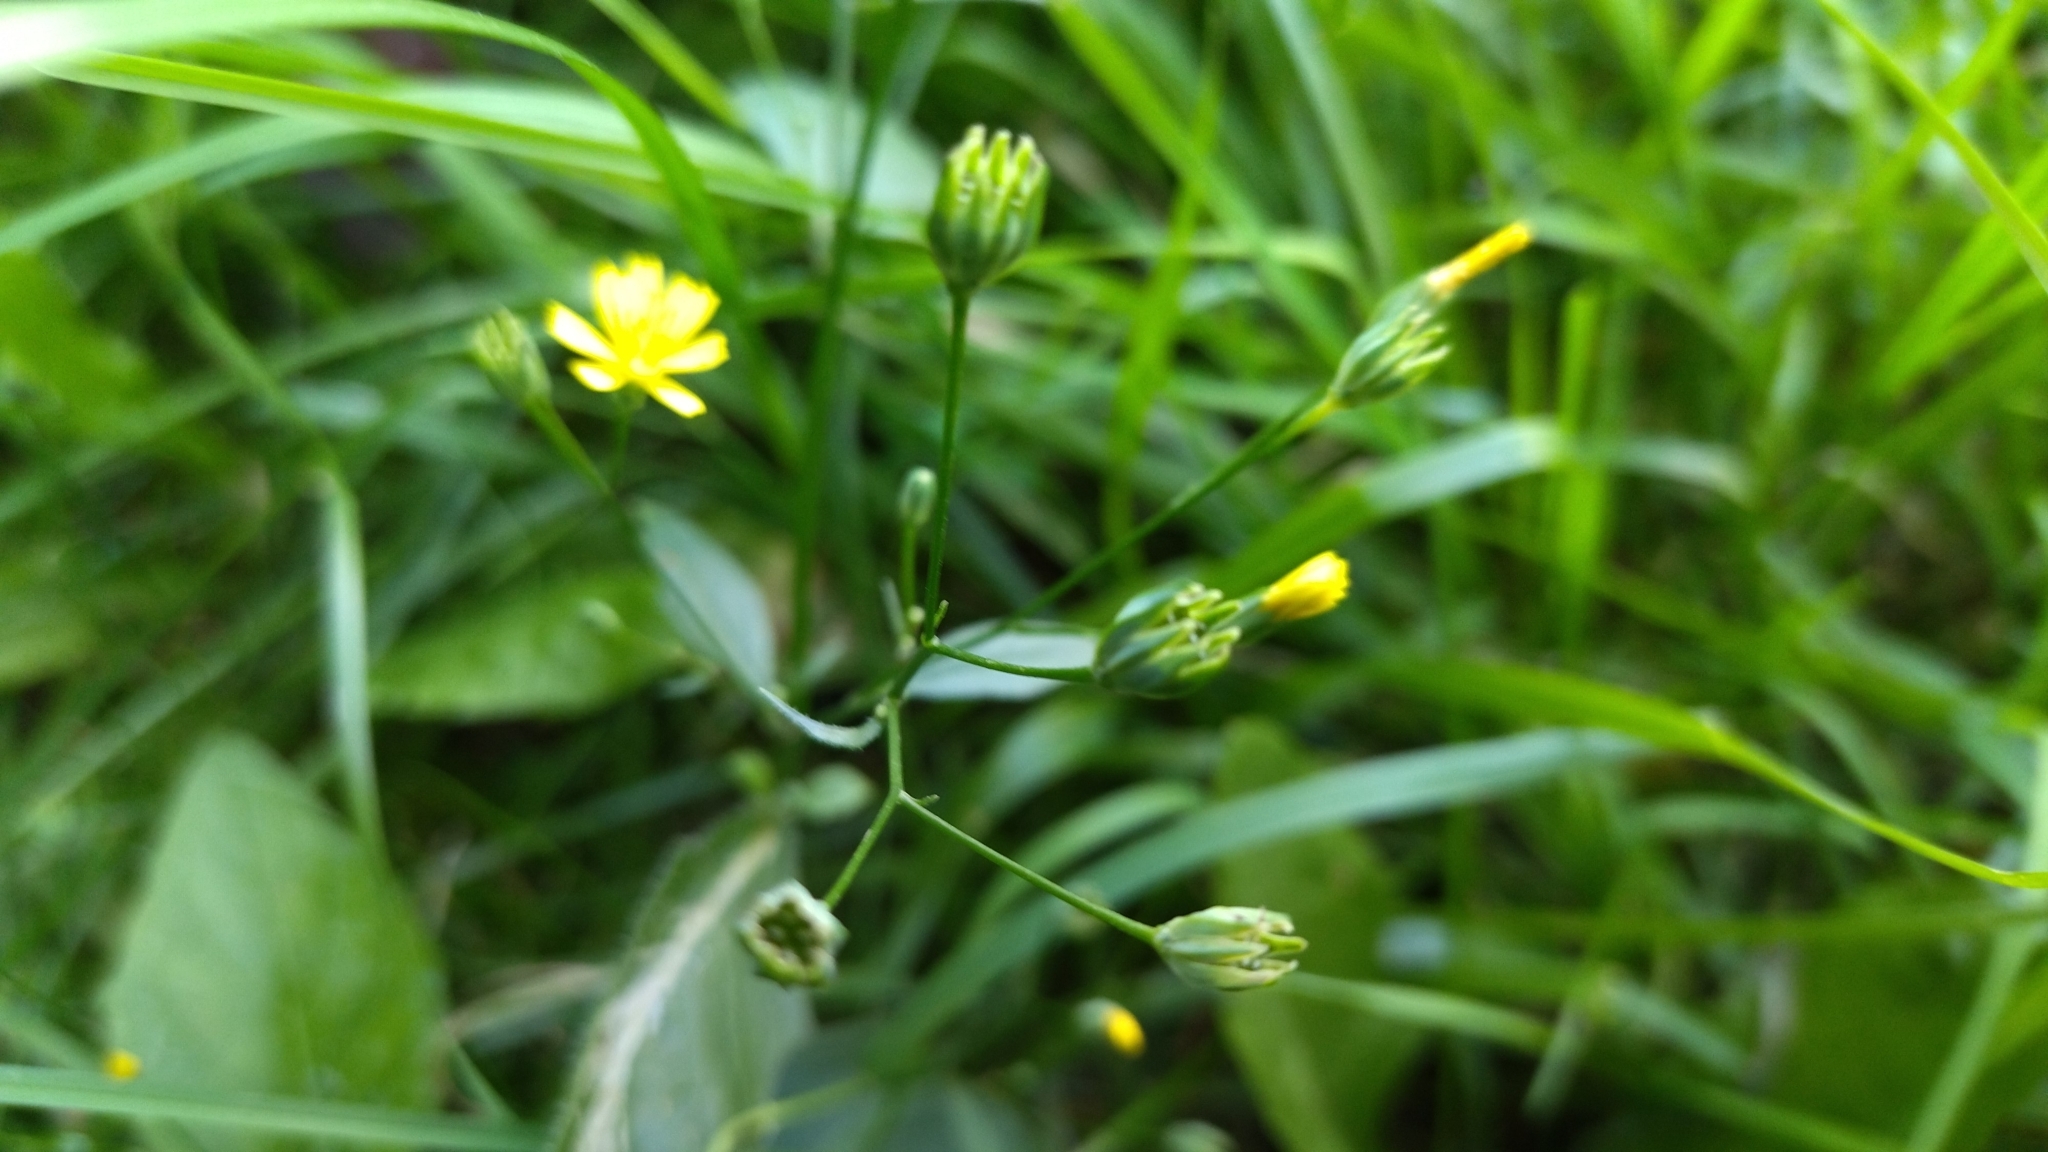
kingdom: Plantae
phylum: Tracheophyta
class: Magnoliopsida
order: Asterales
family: Asteraceae
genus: Lapsana
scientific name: Lapsana communis
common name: Nipplewort
